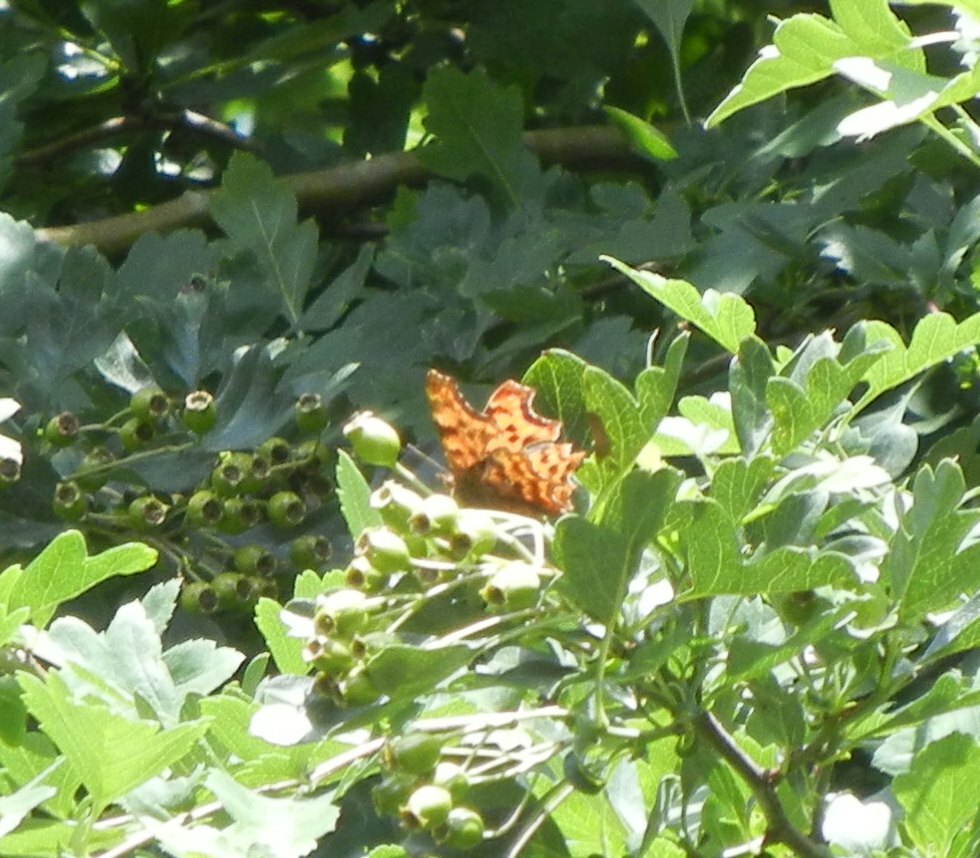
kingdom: Animalia
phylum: Arthropoda
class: Insecta
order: Lepidoptera
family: Nymphalidae
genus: Polygonia
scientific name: Polygonia c-album
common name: Comma
